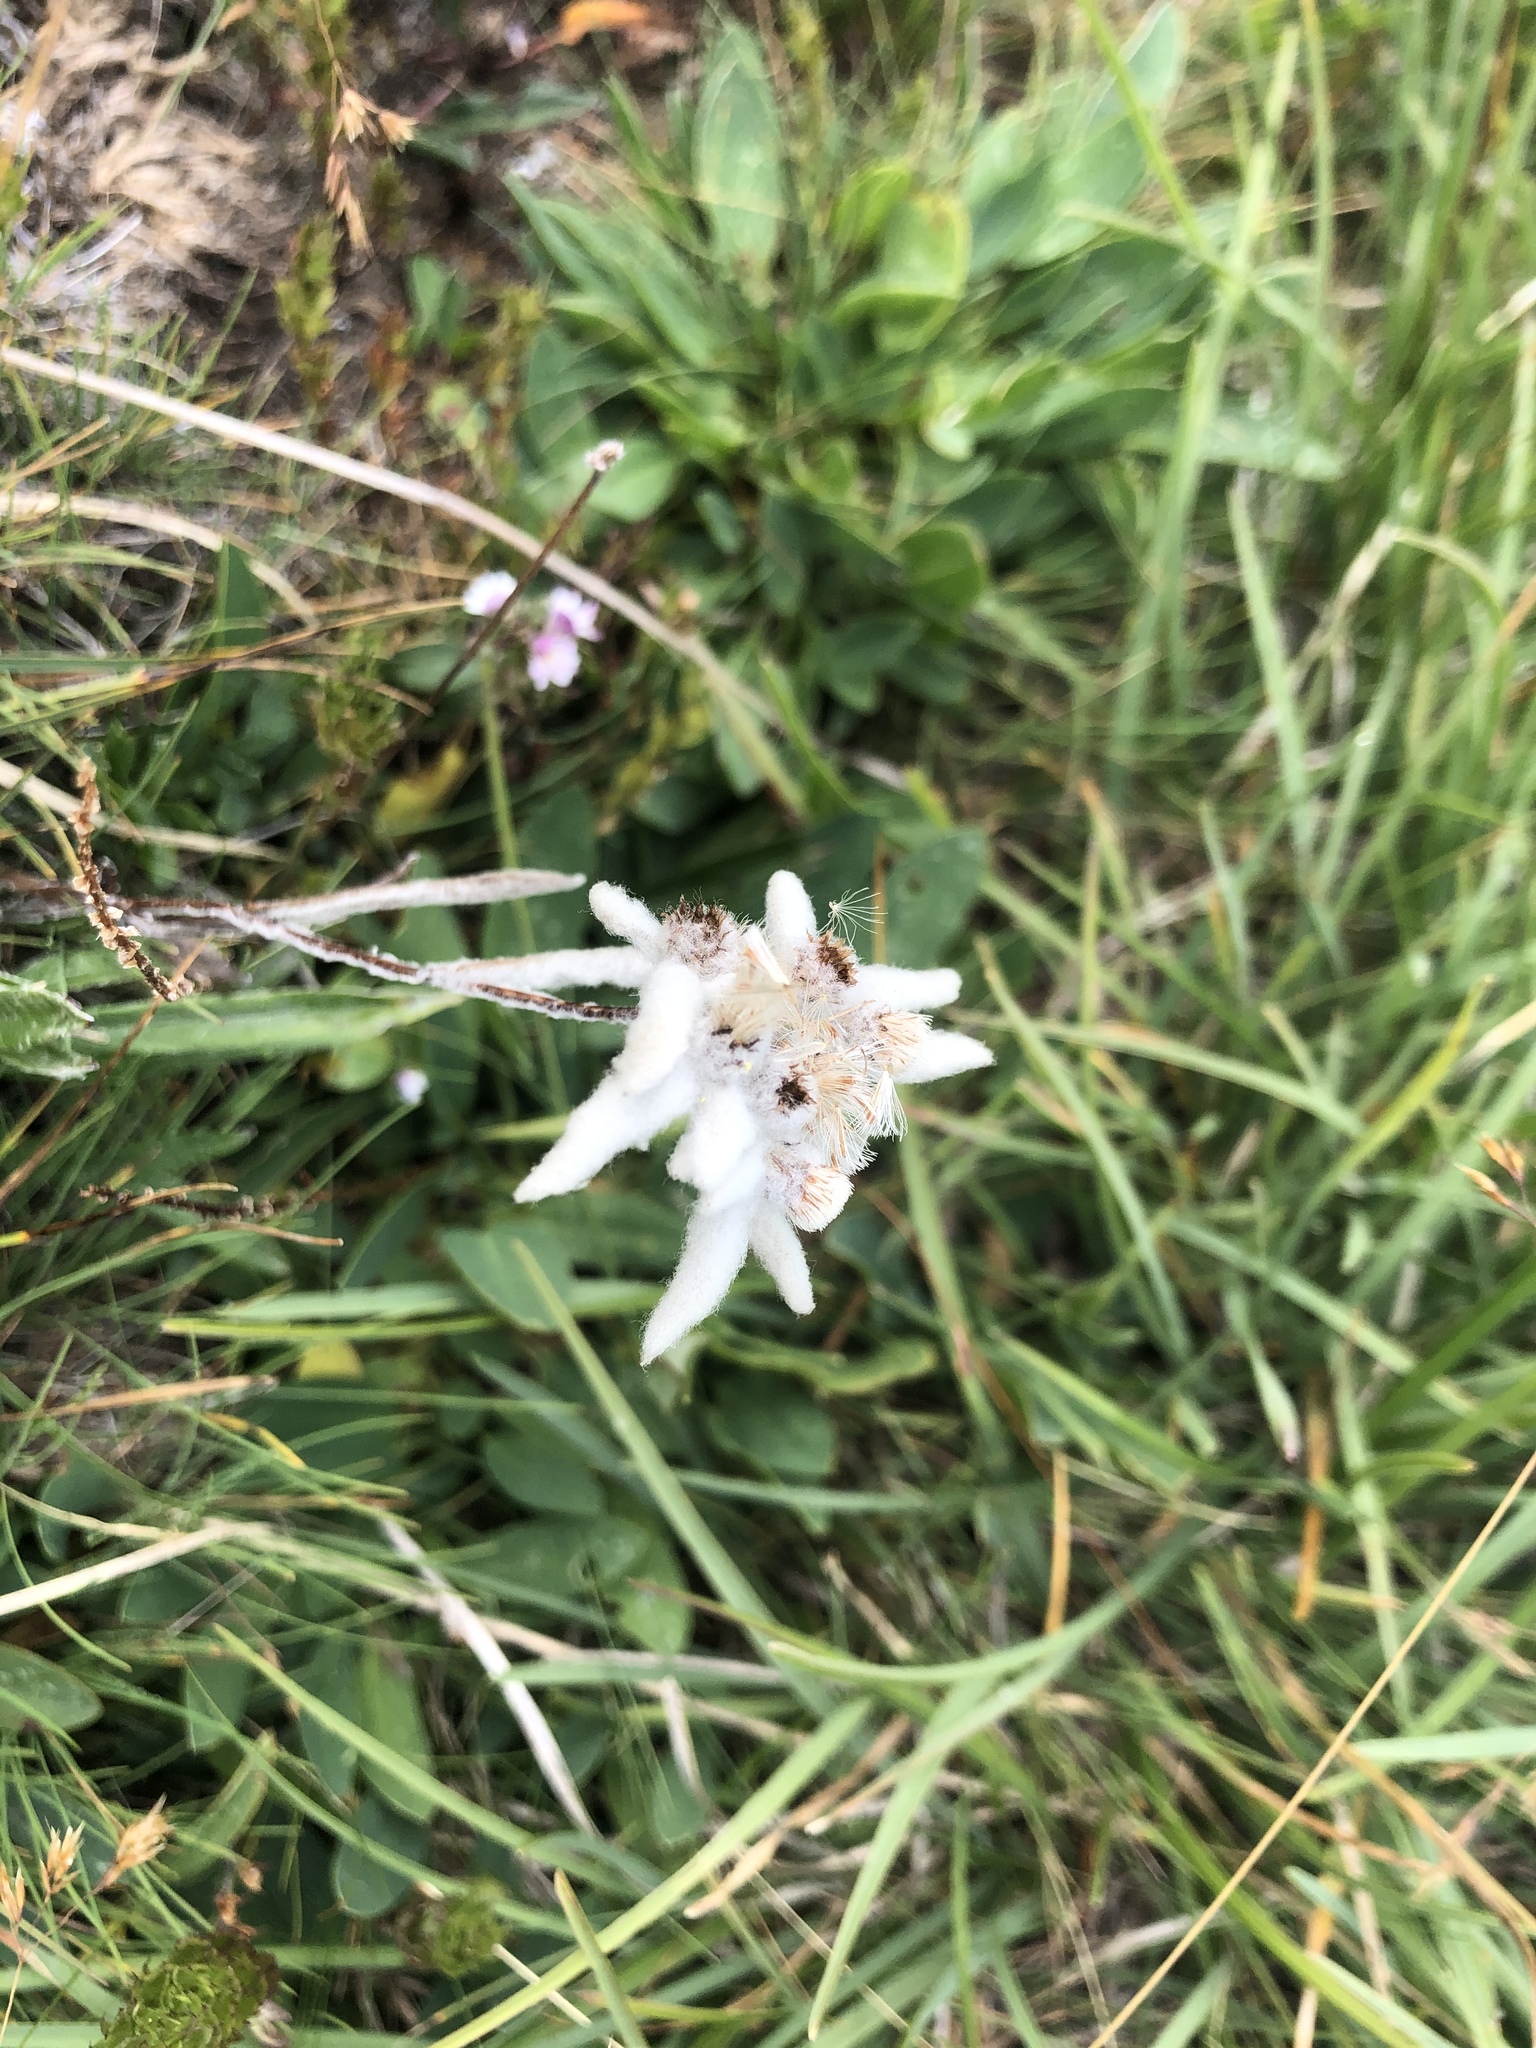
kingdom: Plantae
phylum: Tracheophyta
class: Magnoliopsida
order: Asterales
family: Asteraceae
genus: Leontopodium
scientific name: Leontopodium nivale
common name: Edelweiss
